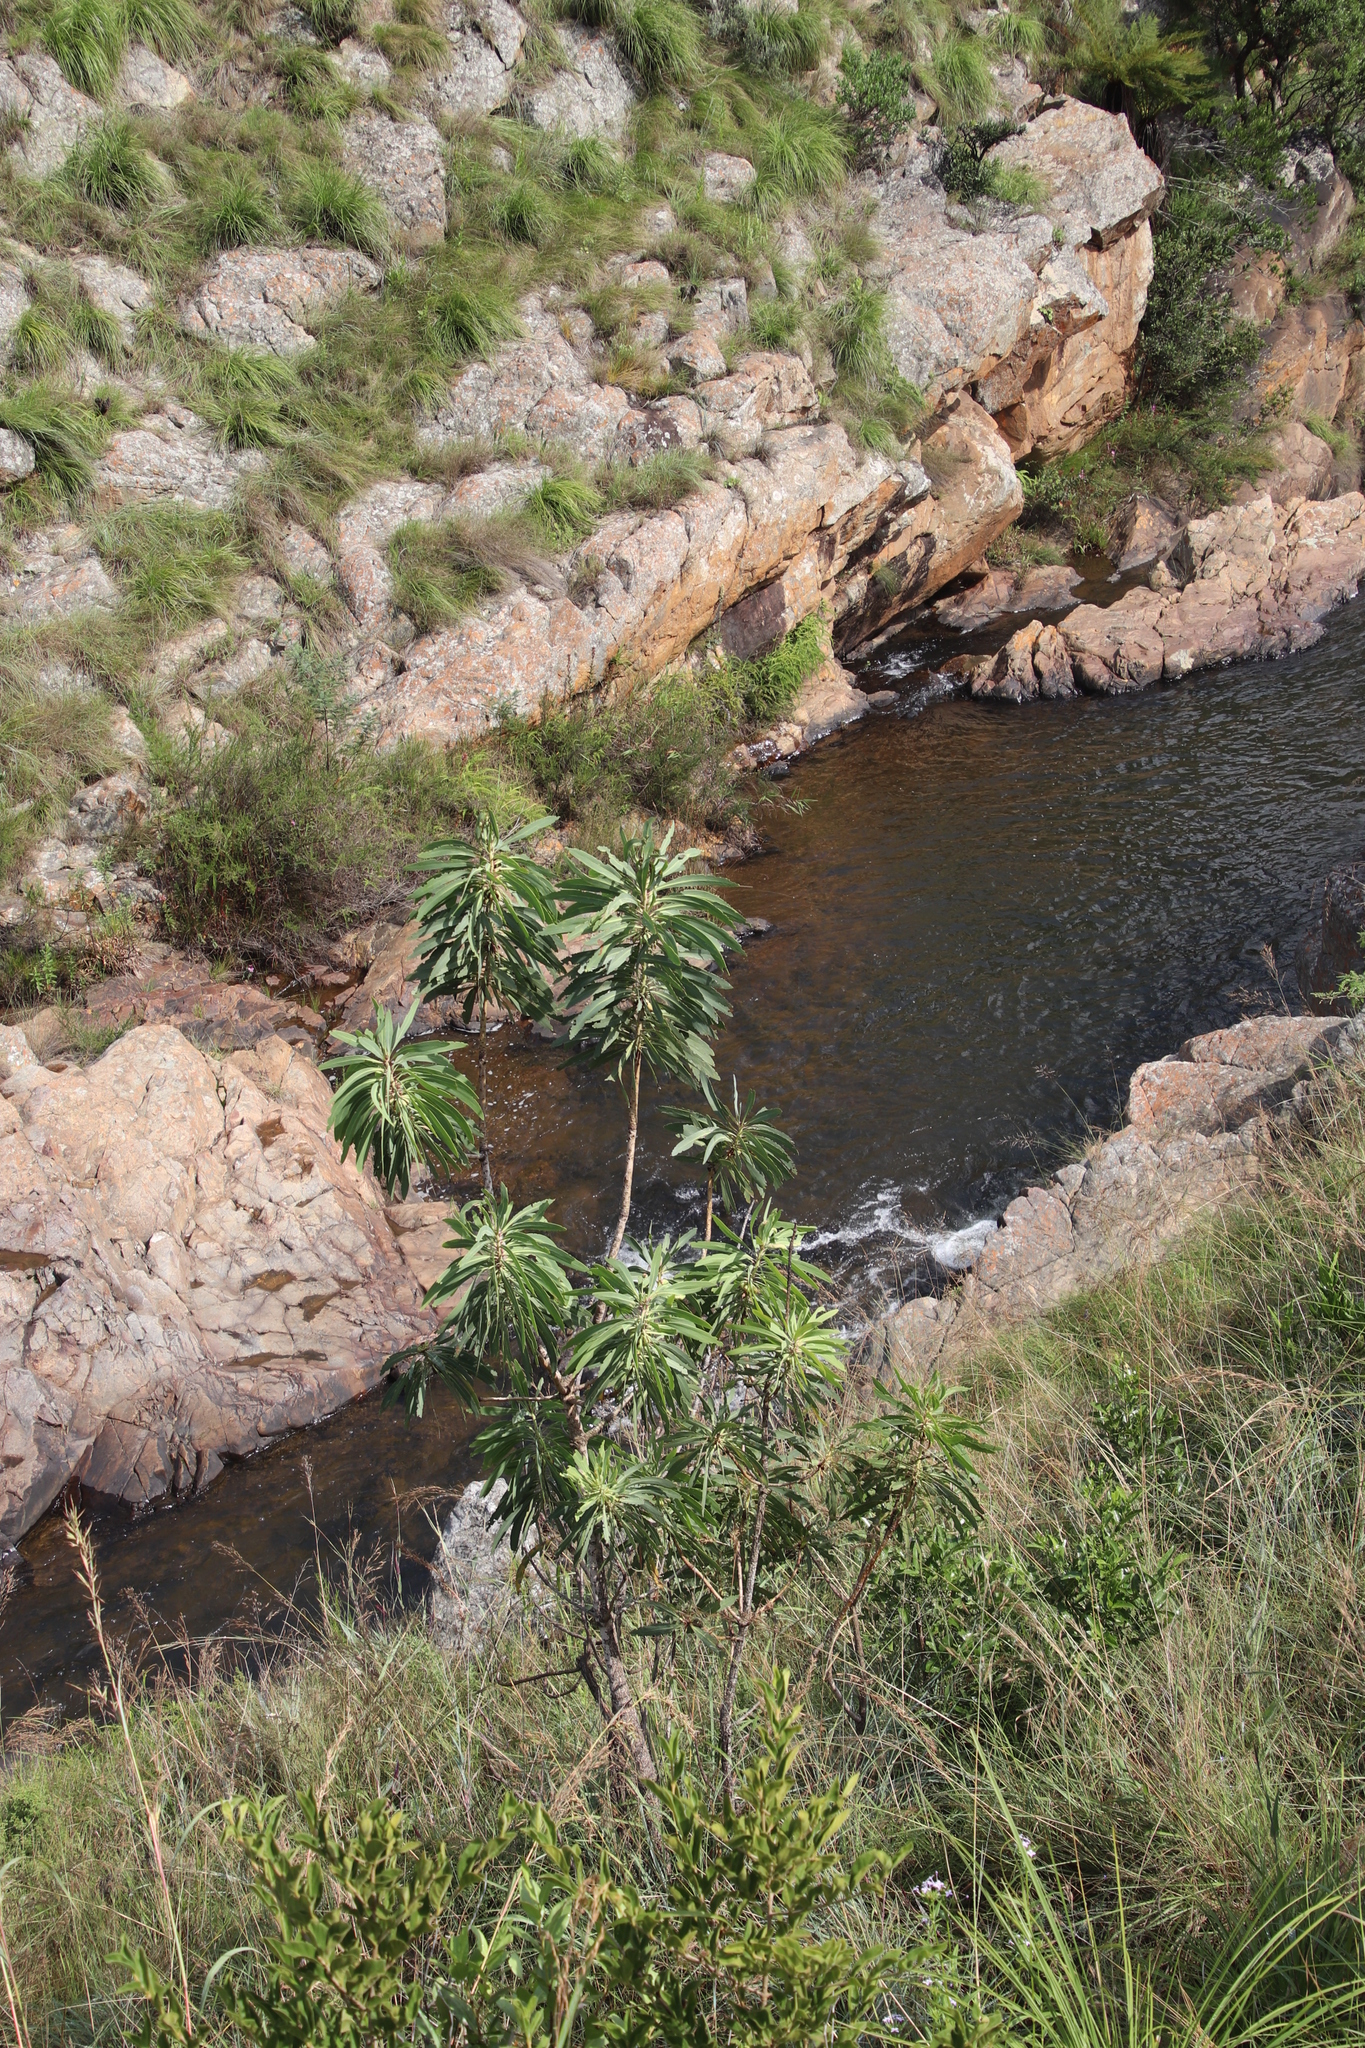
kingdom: Plantae
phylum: Tracheophyta
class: Magnoliopsida
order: Proteales
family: Proteaceae
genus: Protea
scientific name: Protea caffra
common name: Common sugarbush
